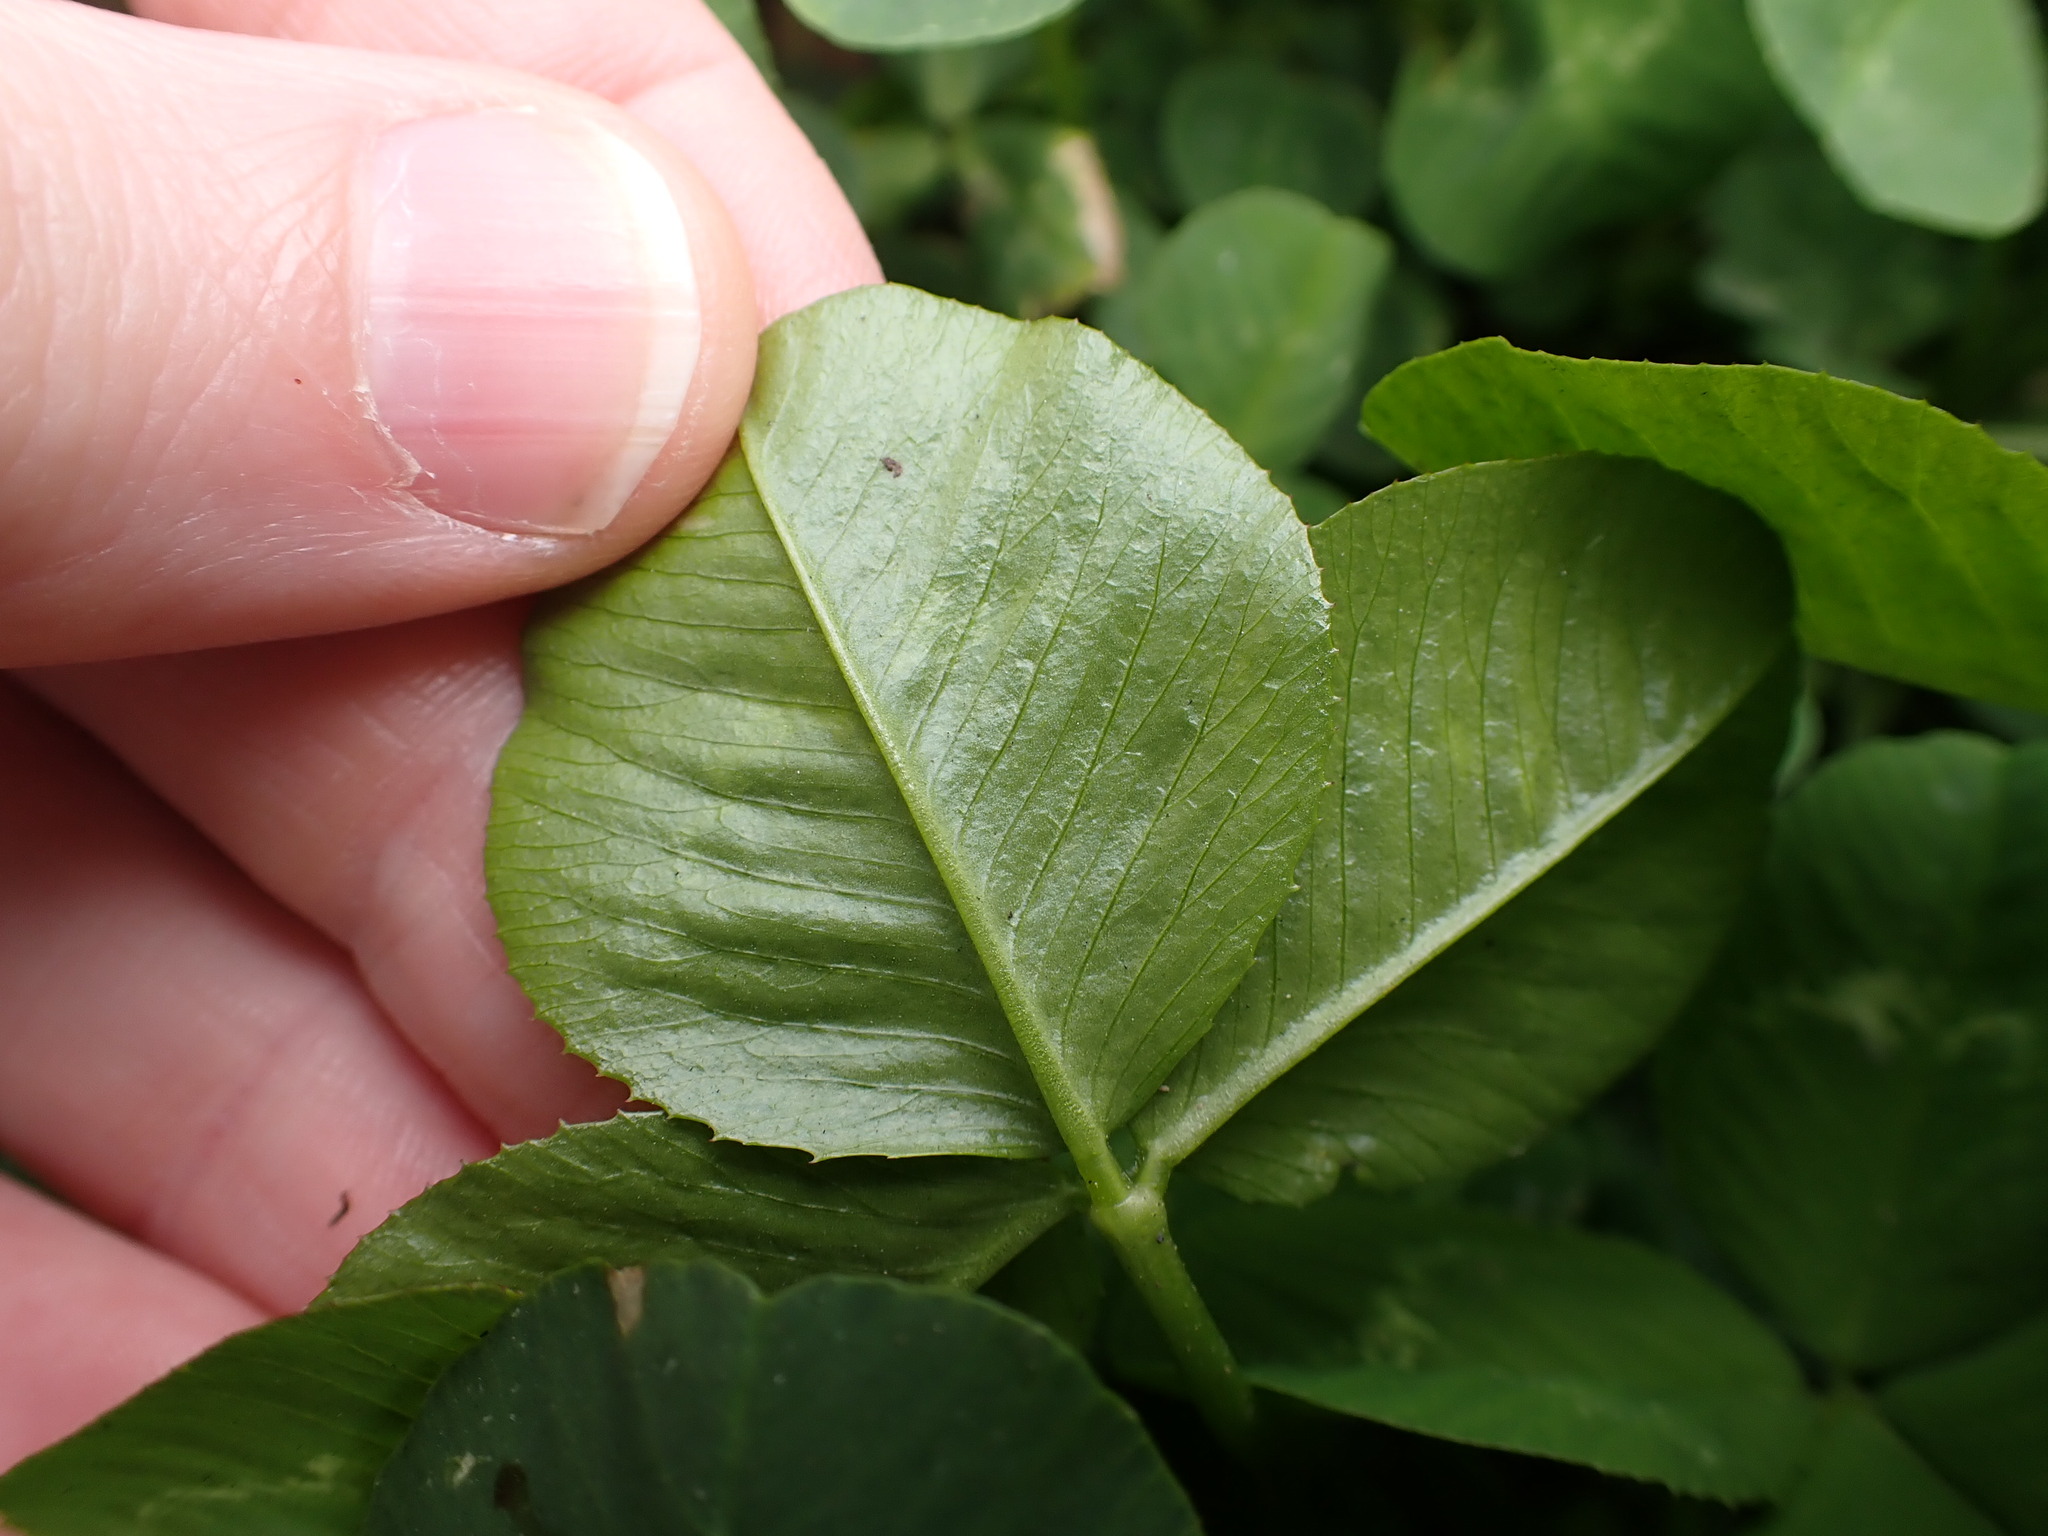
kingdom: Plantae
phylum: Tracheophyta
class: Magnoliopsida
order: Fabales
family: Fabaceae
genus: Trifolium
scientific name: Trifolium repens
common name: White clover
